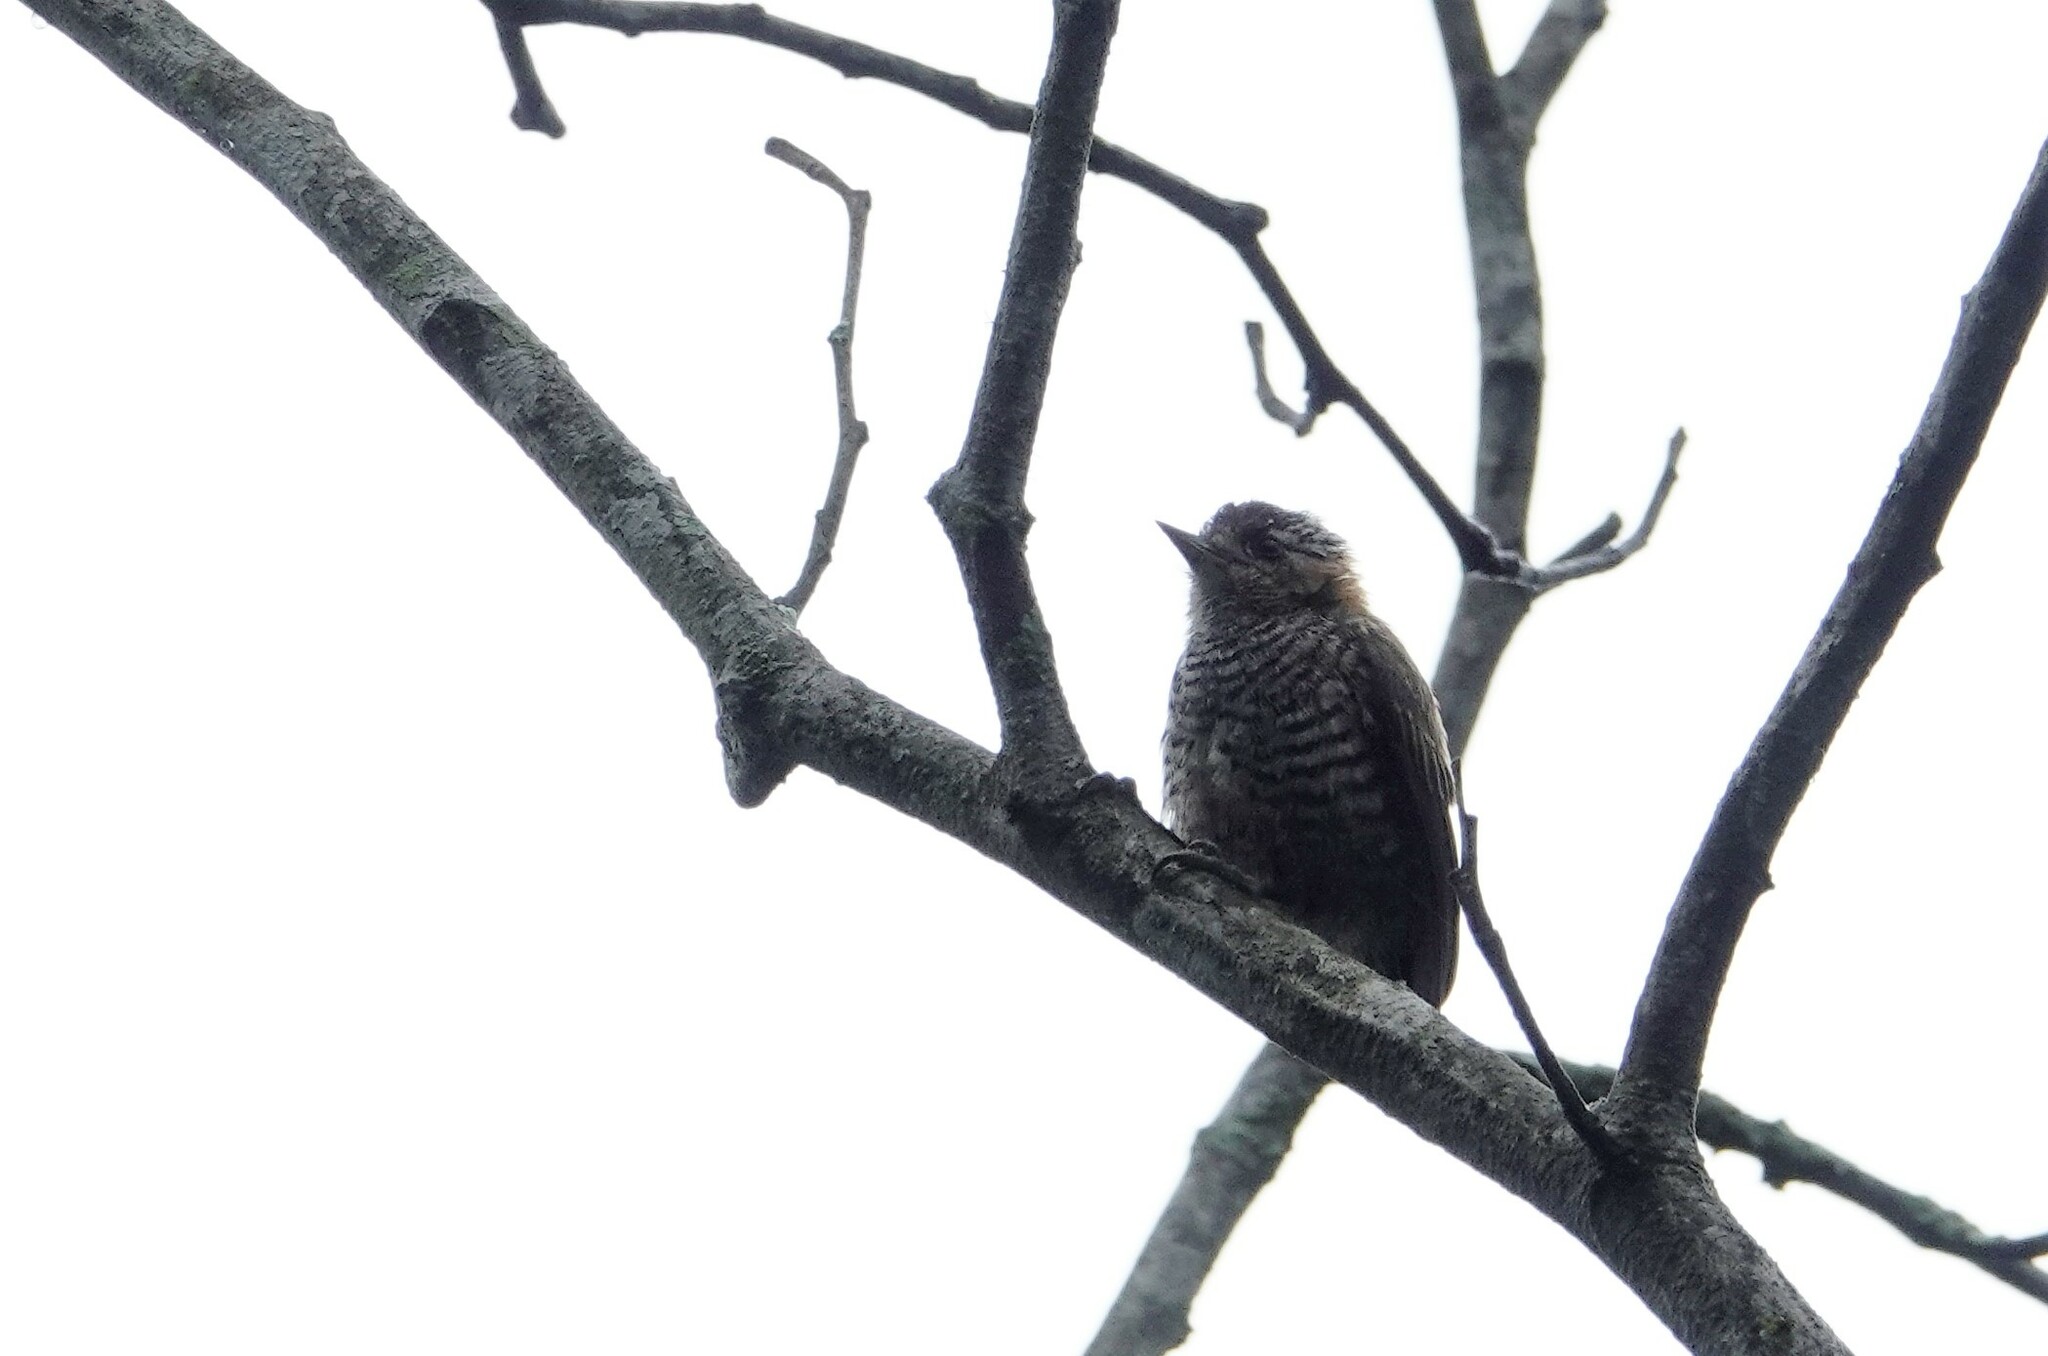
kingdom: Animalia
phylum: Chordata
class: Aves
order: Piciformes
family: Picidae
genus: Picumnus
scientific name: Picumnus temminckii
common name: Ochre-collared piculet
